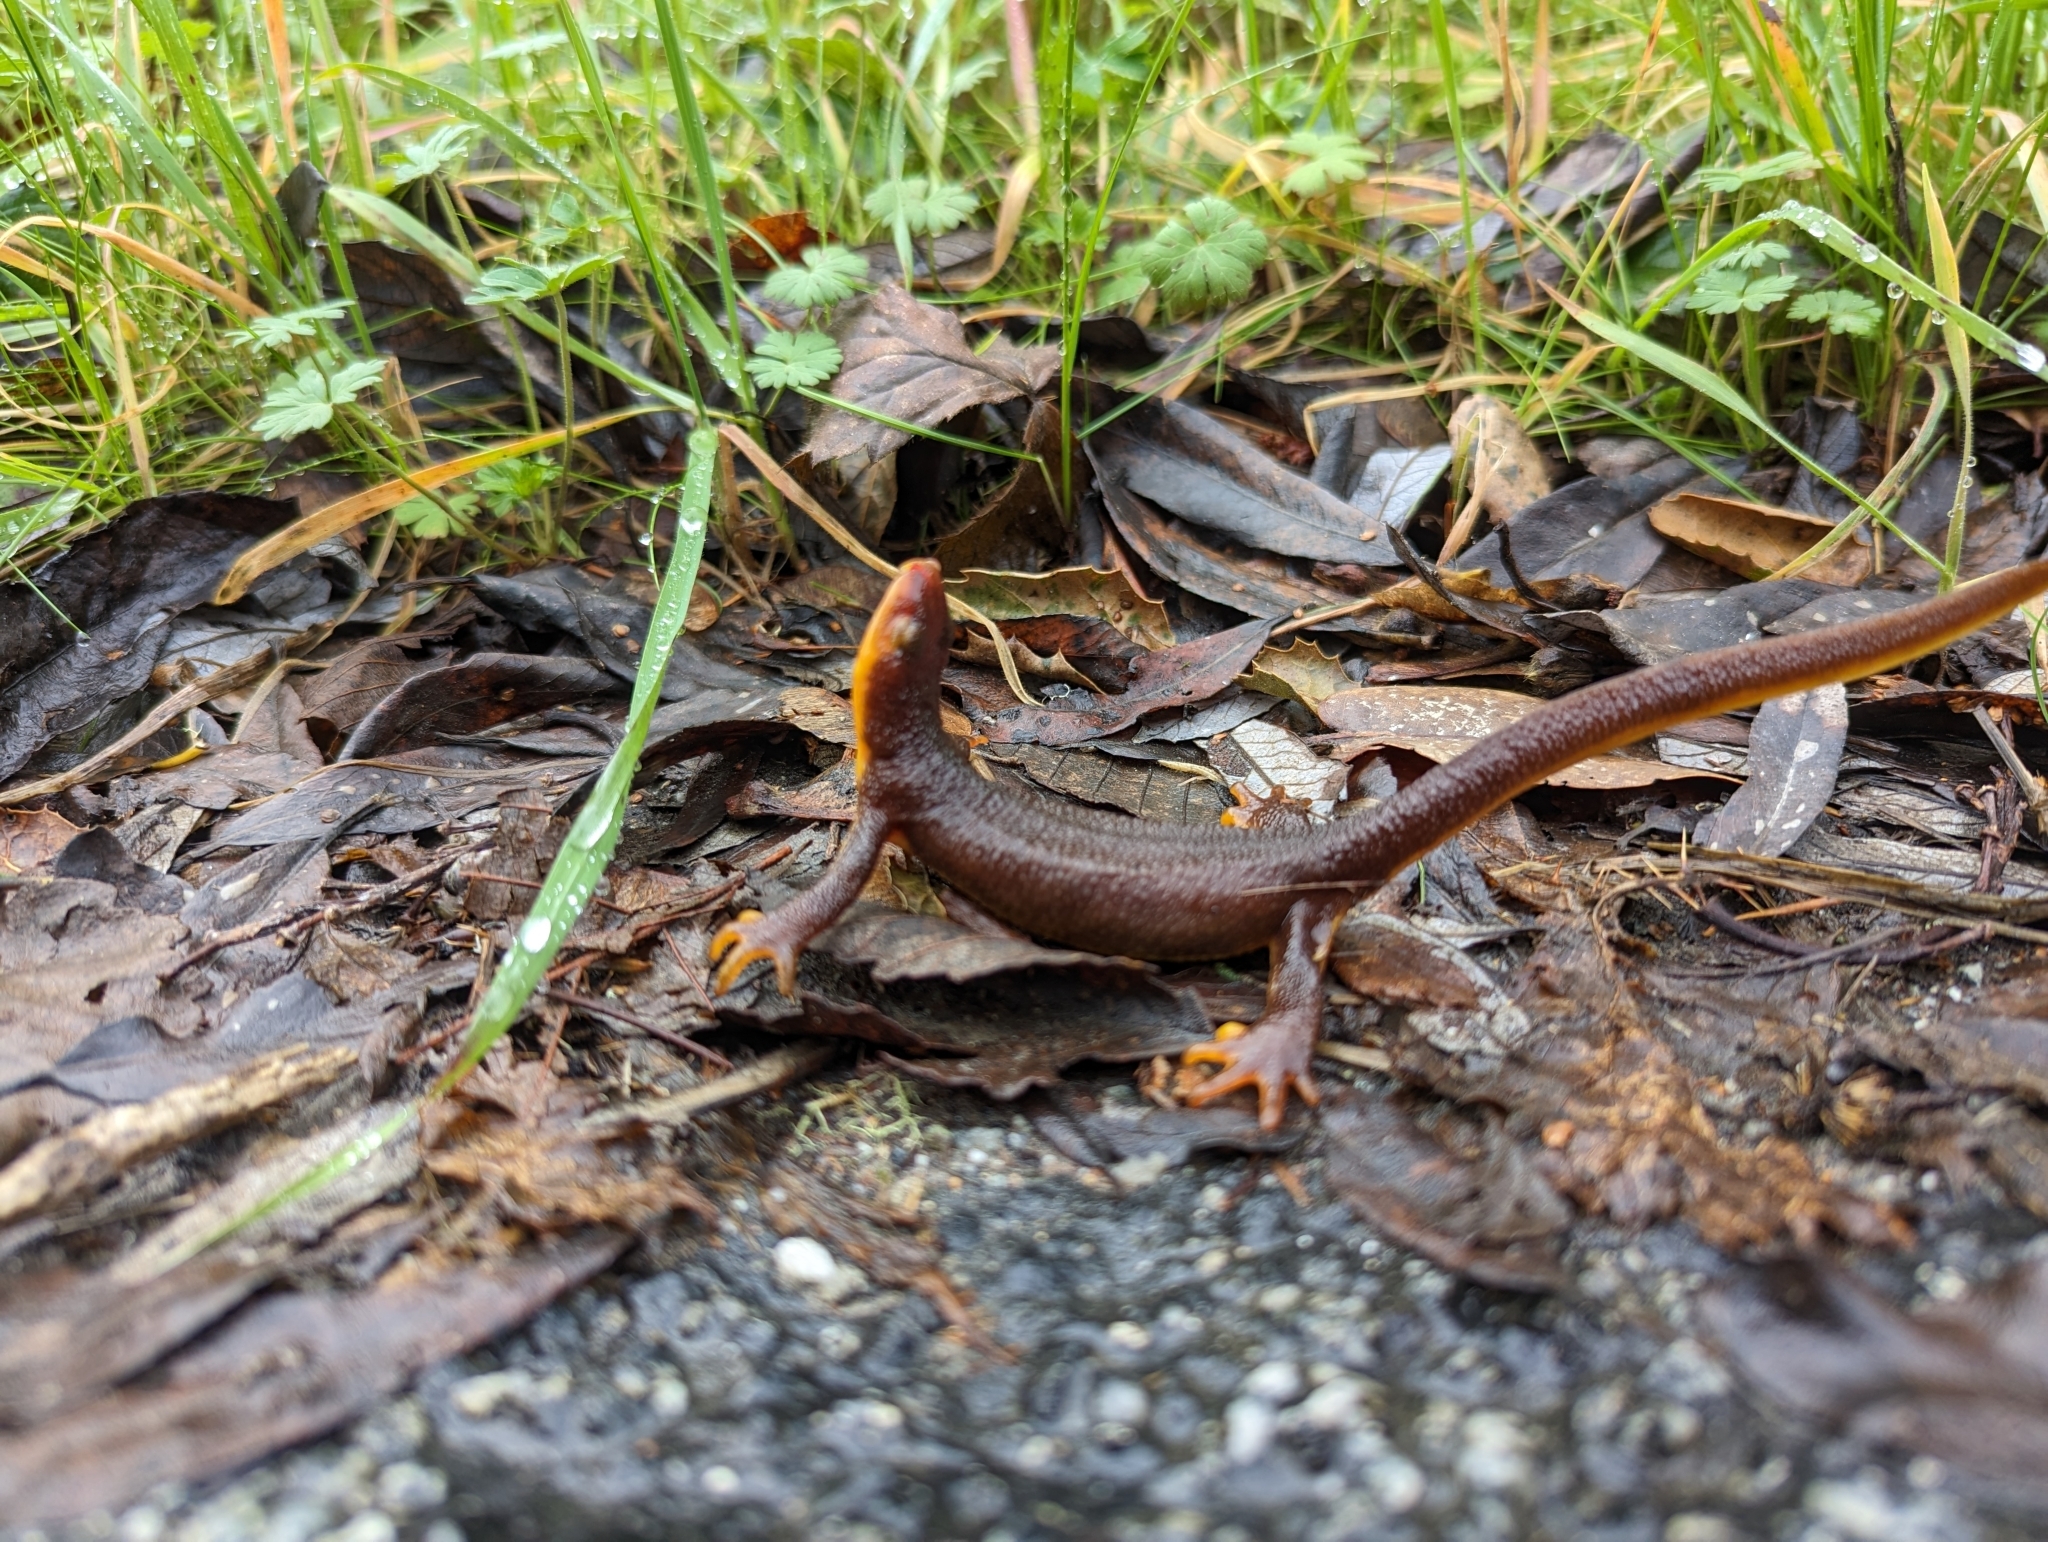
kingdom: Animalia
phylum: Chordata
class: Amphibia
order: Caudata
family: Salamandridae
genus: Taricha
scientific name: Taricha torosa
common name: California newt
